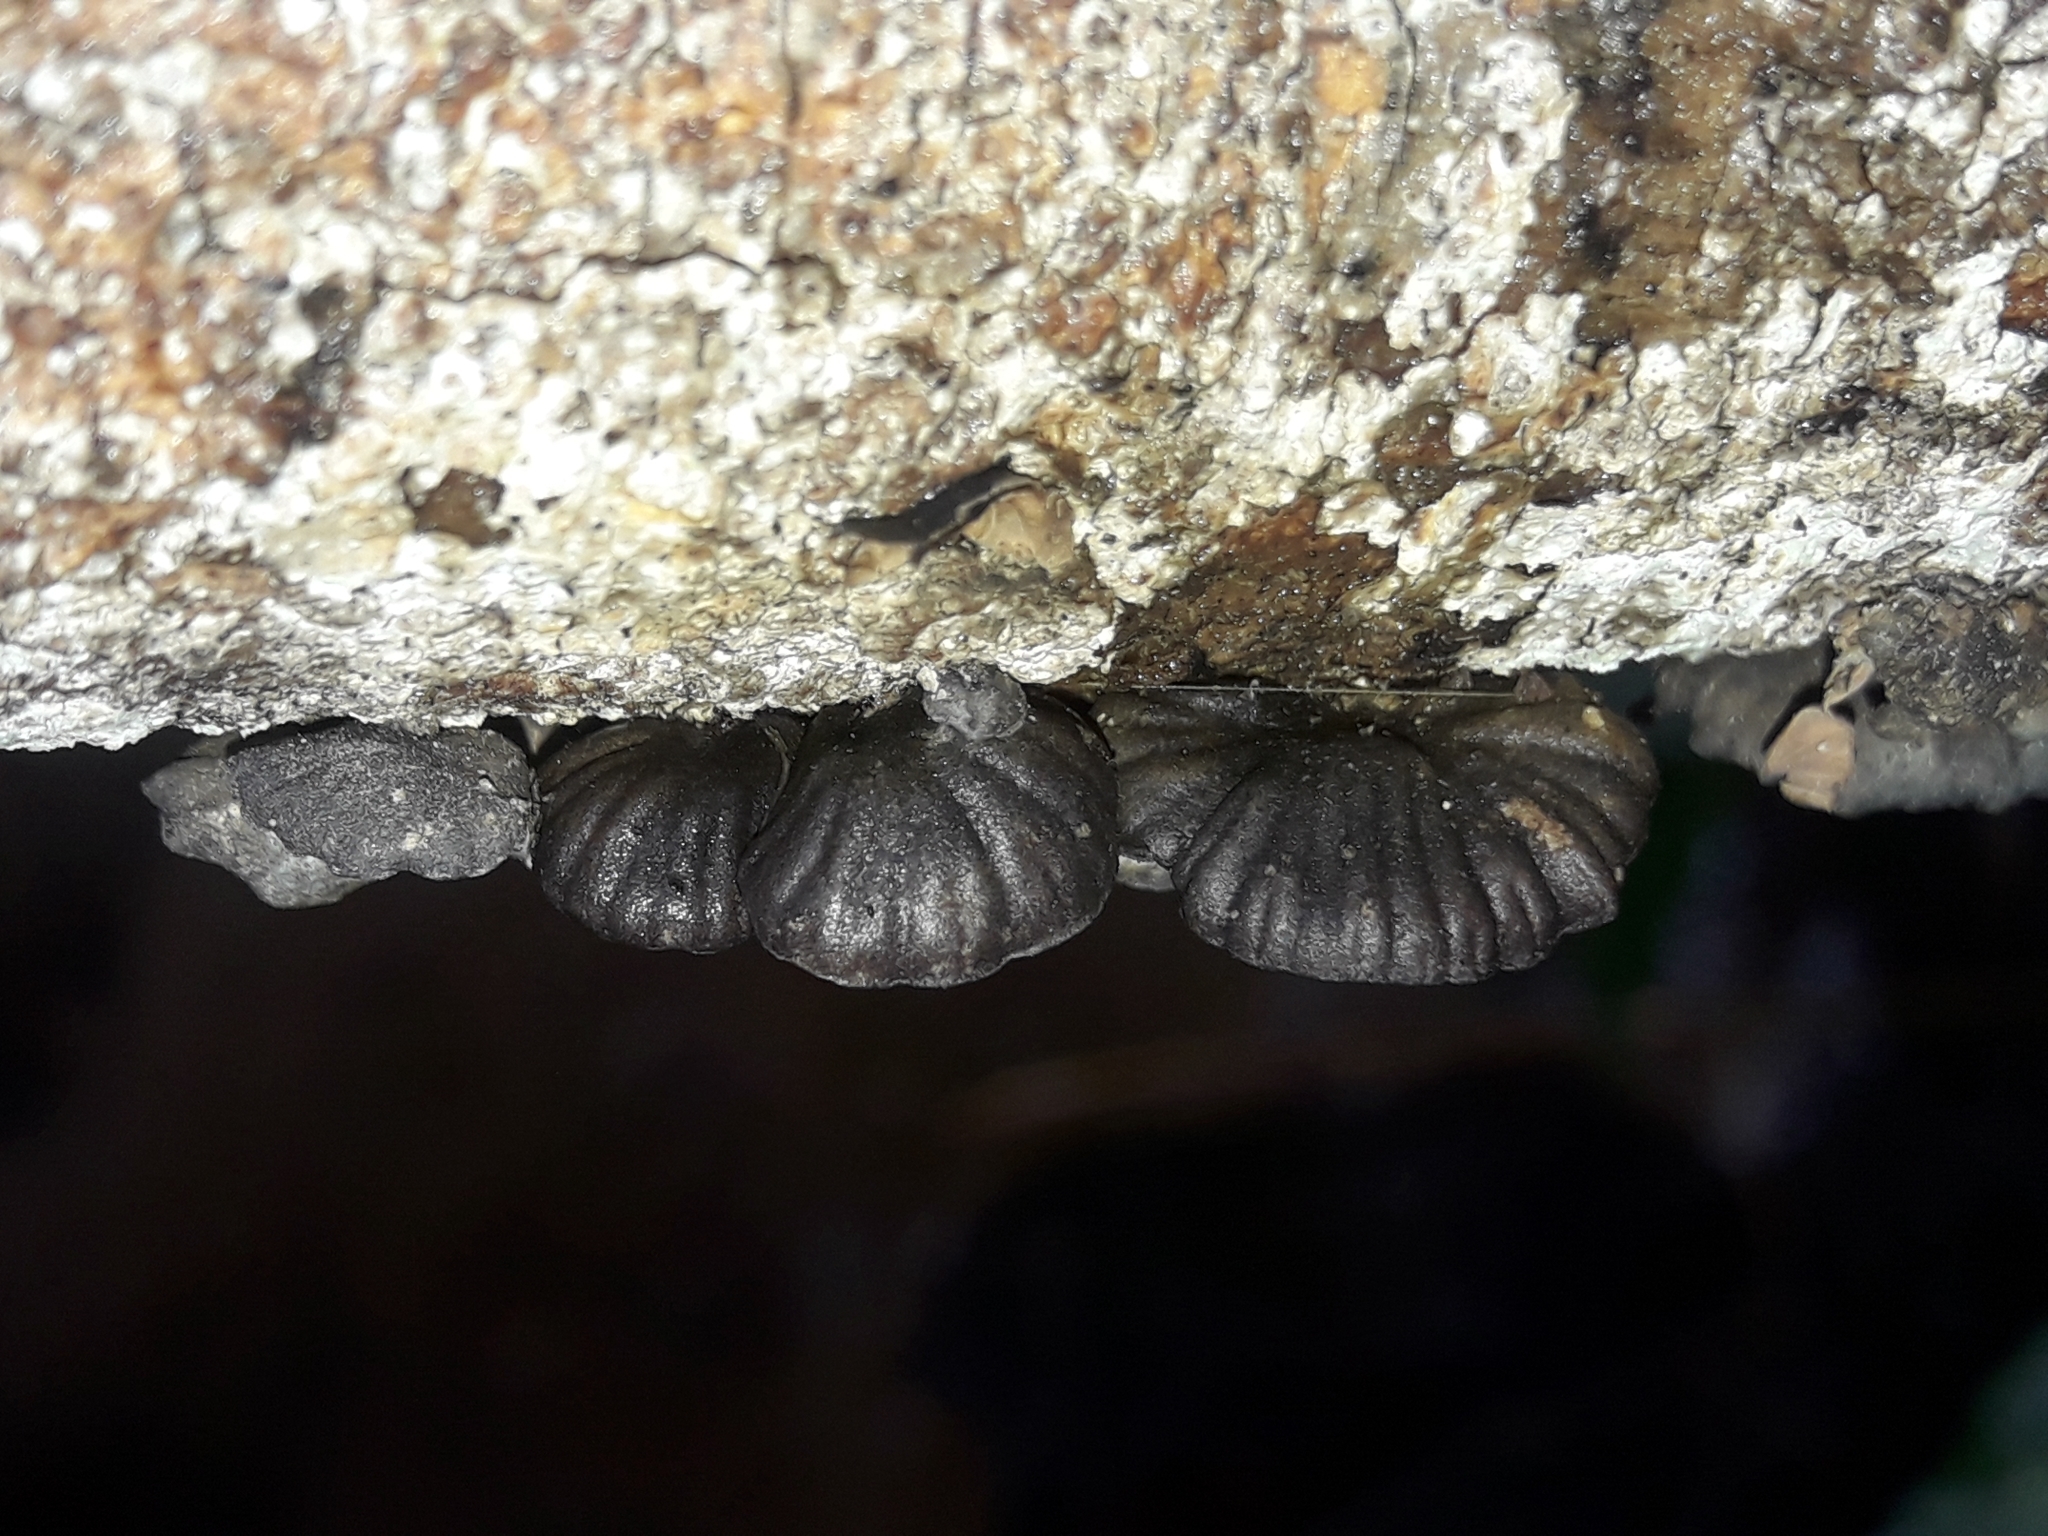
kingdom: Fungi
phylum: Basidiomycota
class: Agaricomycetes
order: Agaricales
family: Omphalotaceae
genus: Anthracophyllum
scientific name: Anthracophyllum archeri
